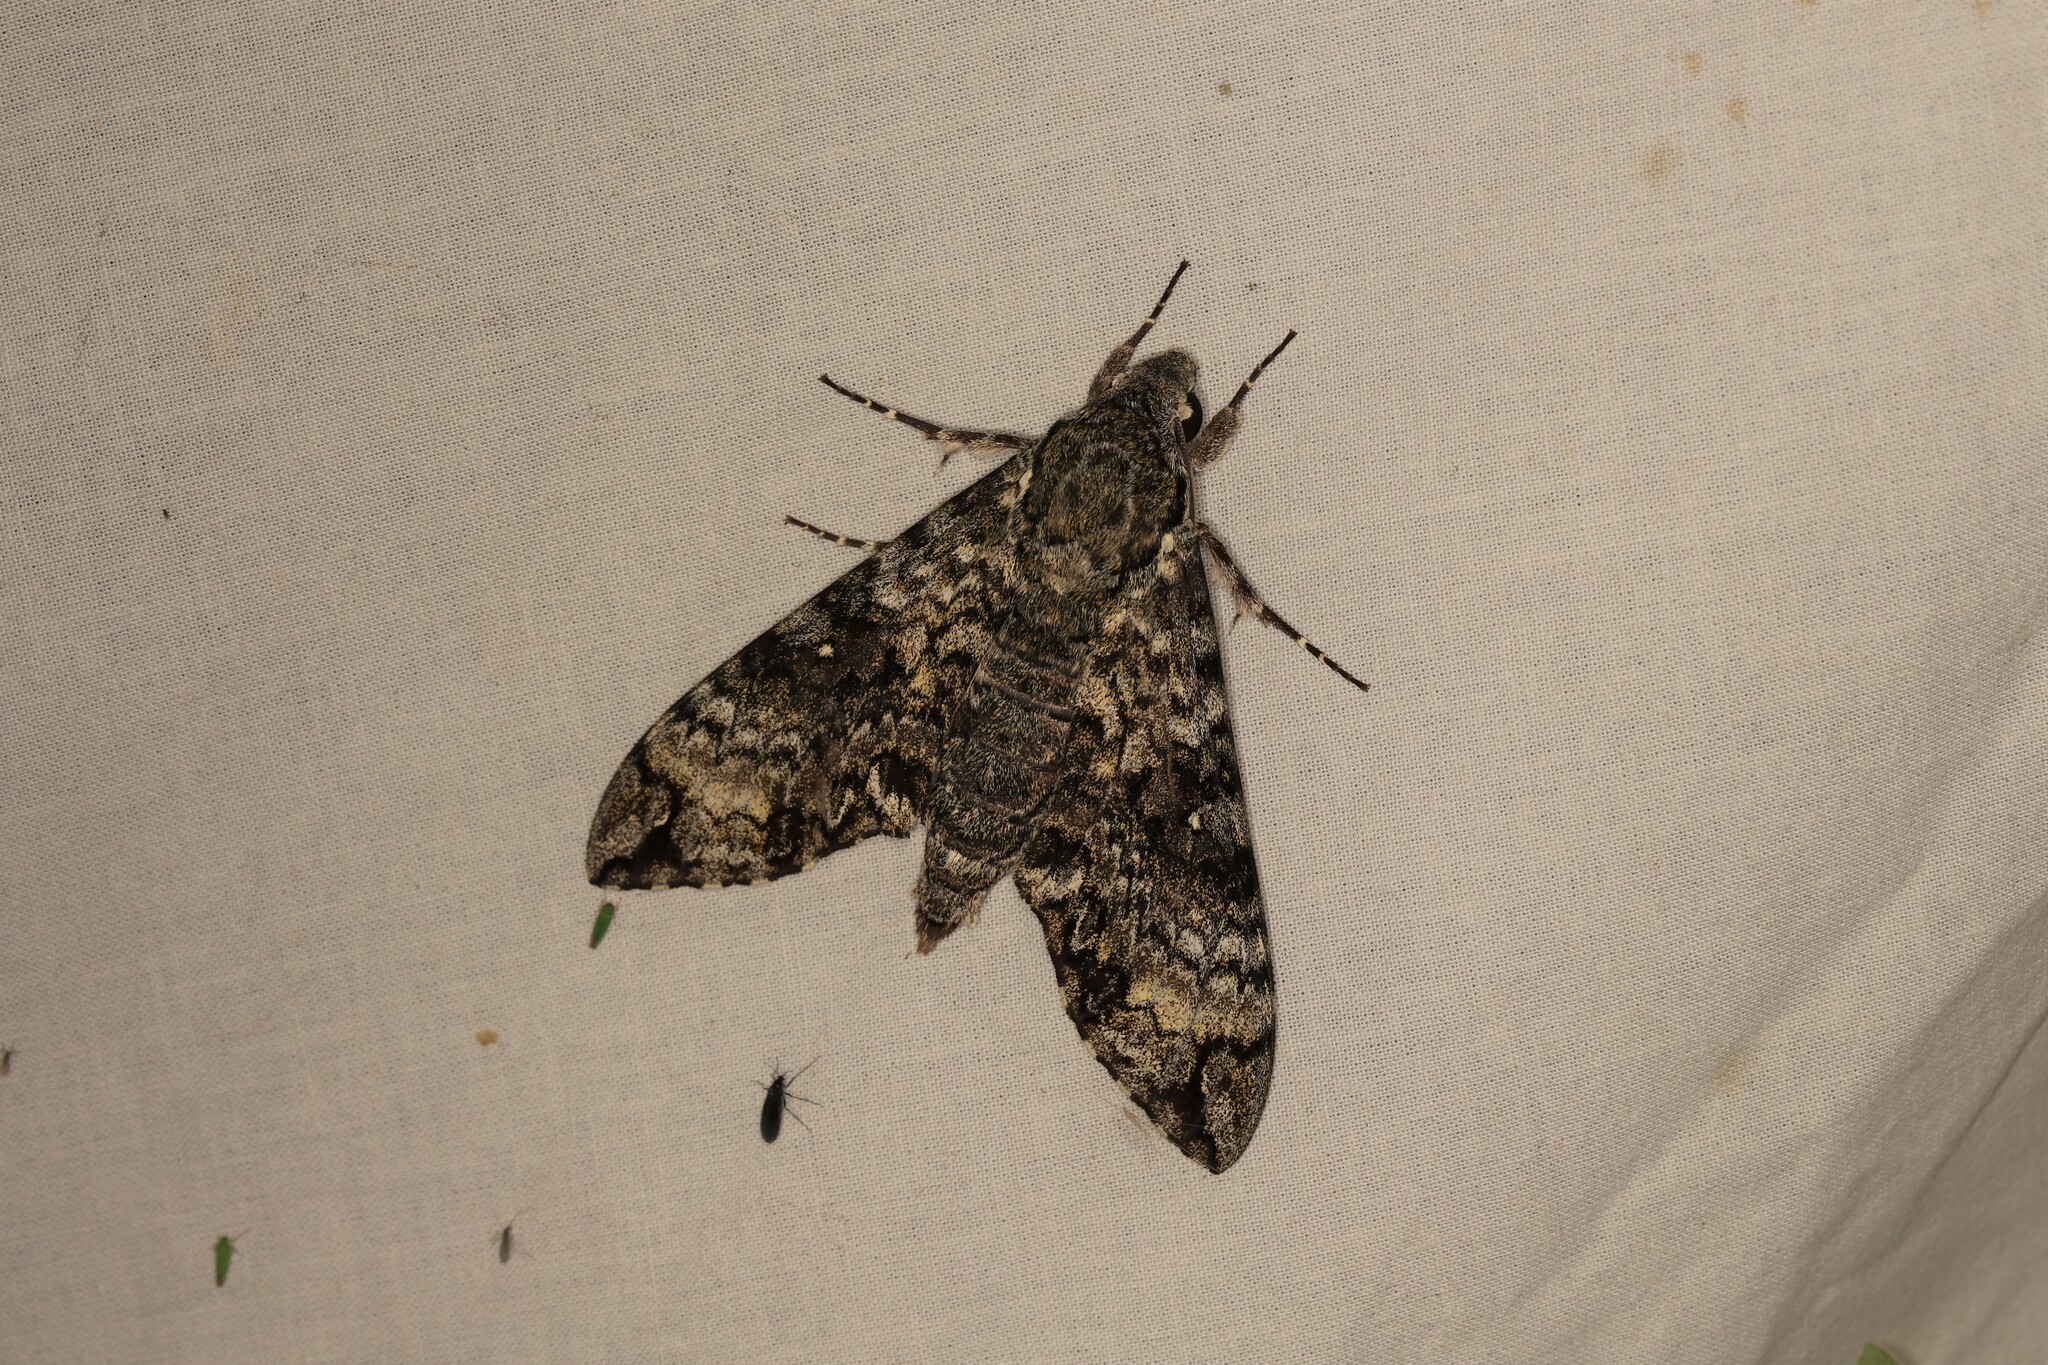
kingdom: Animalia
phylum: Arthropoda
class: Insecta
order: Lepidoptera
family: Sphingidae
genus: Manduca
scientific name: Manduca schausi
